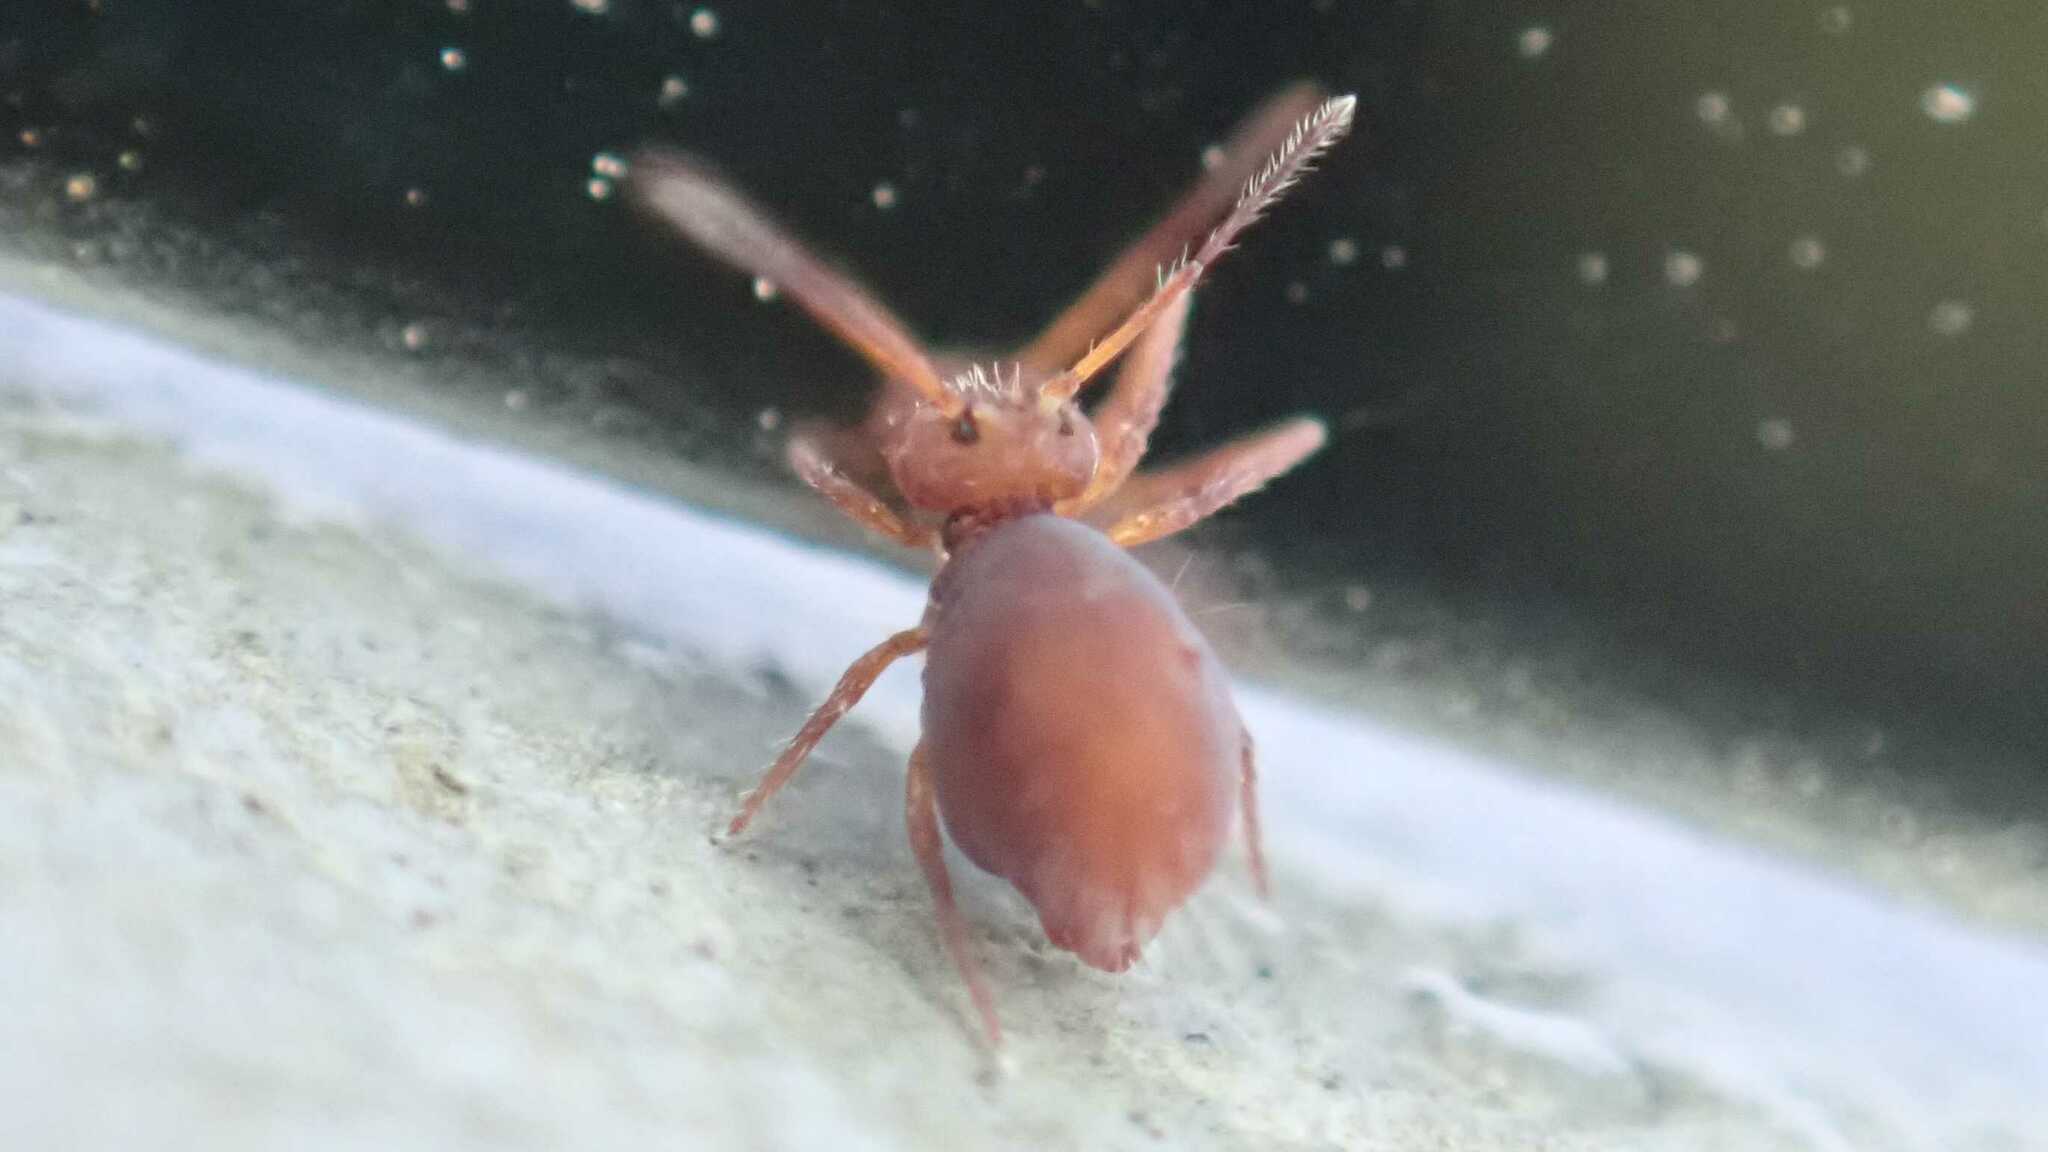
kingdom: Animalia
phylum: Arthropoda
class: Collembola
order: Symphypleona
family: Dicyrtomidae
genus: Dicyrtoma
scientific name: Dicyrtoma fusca
